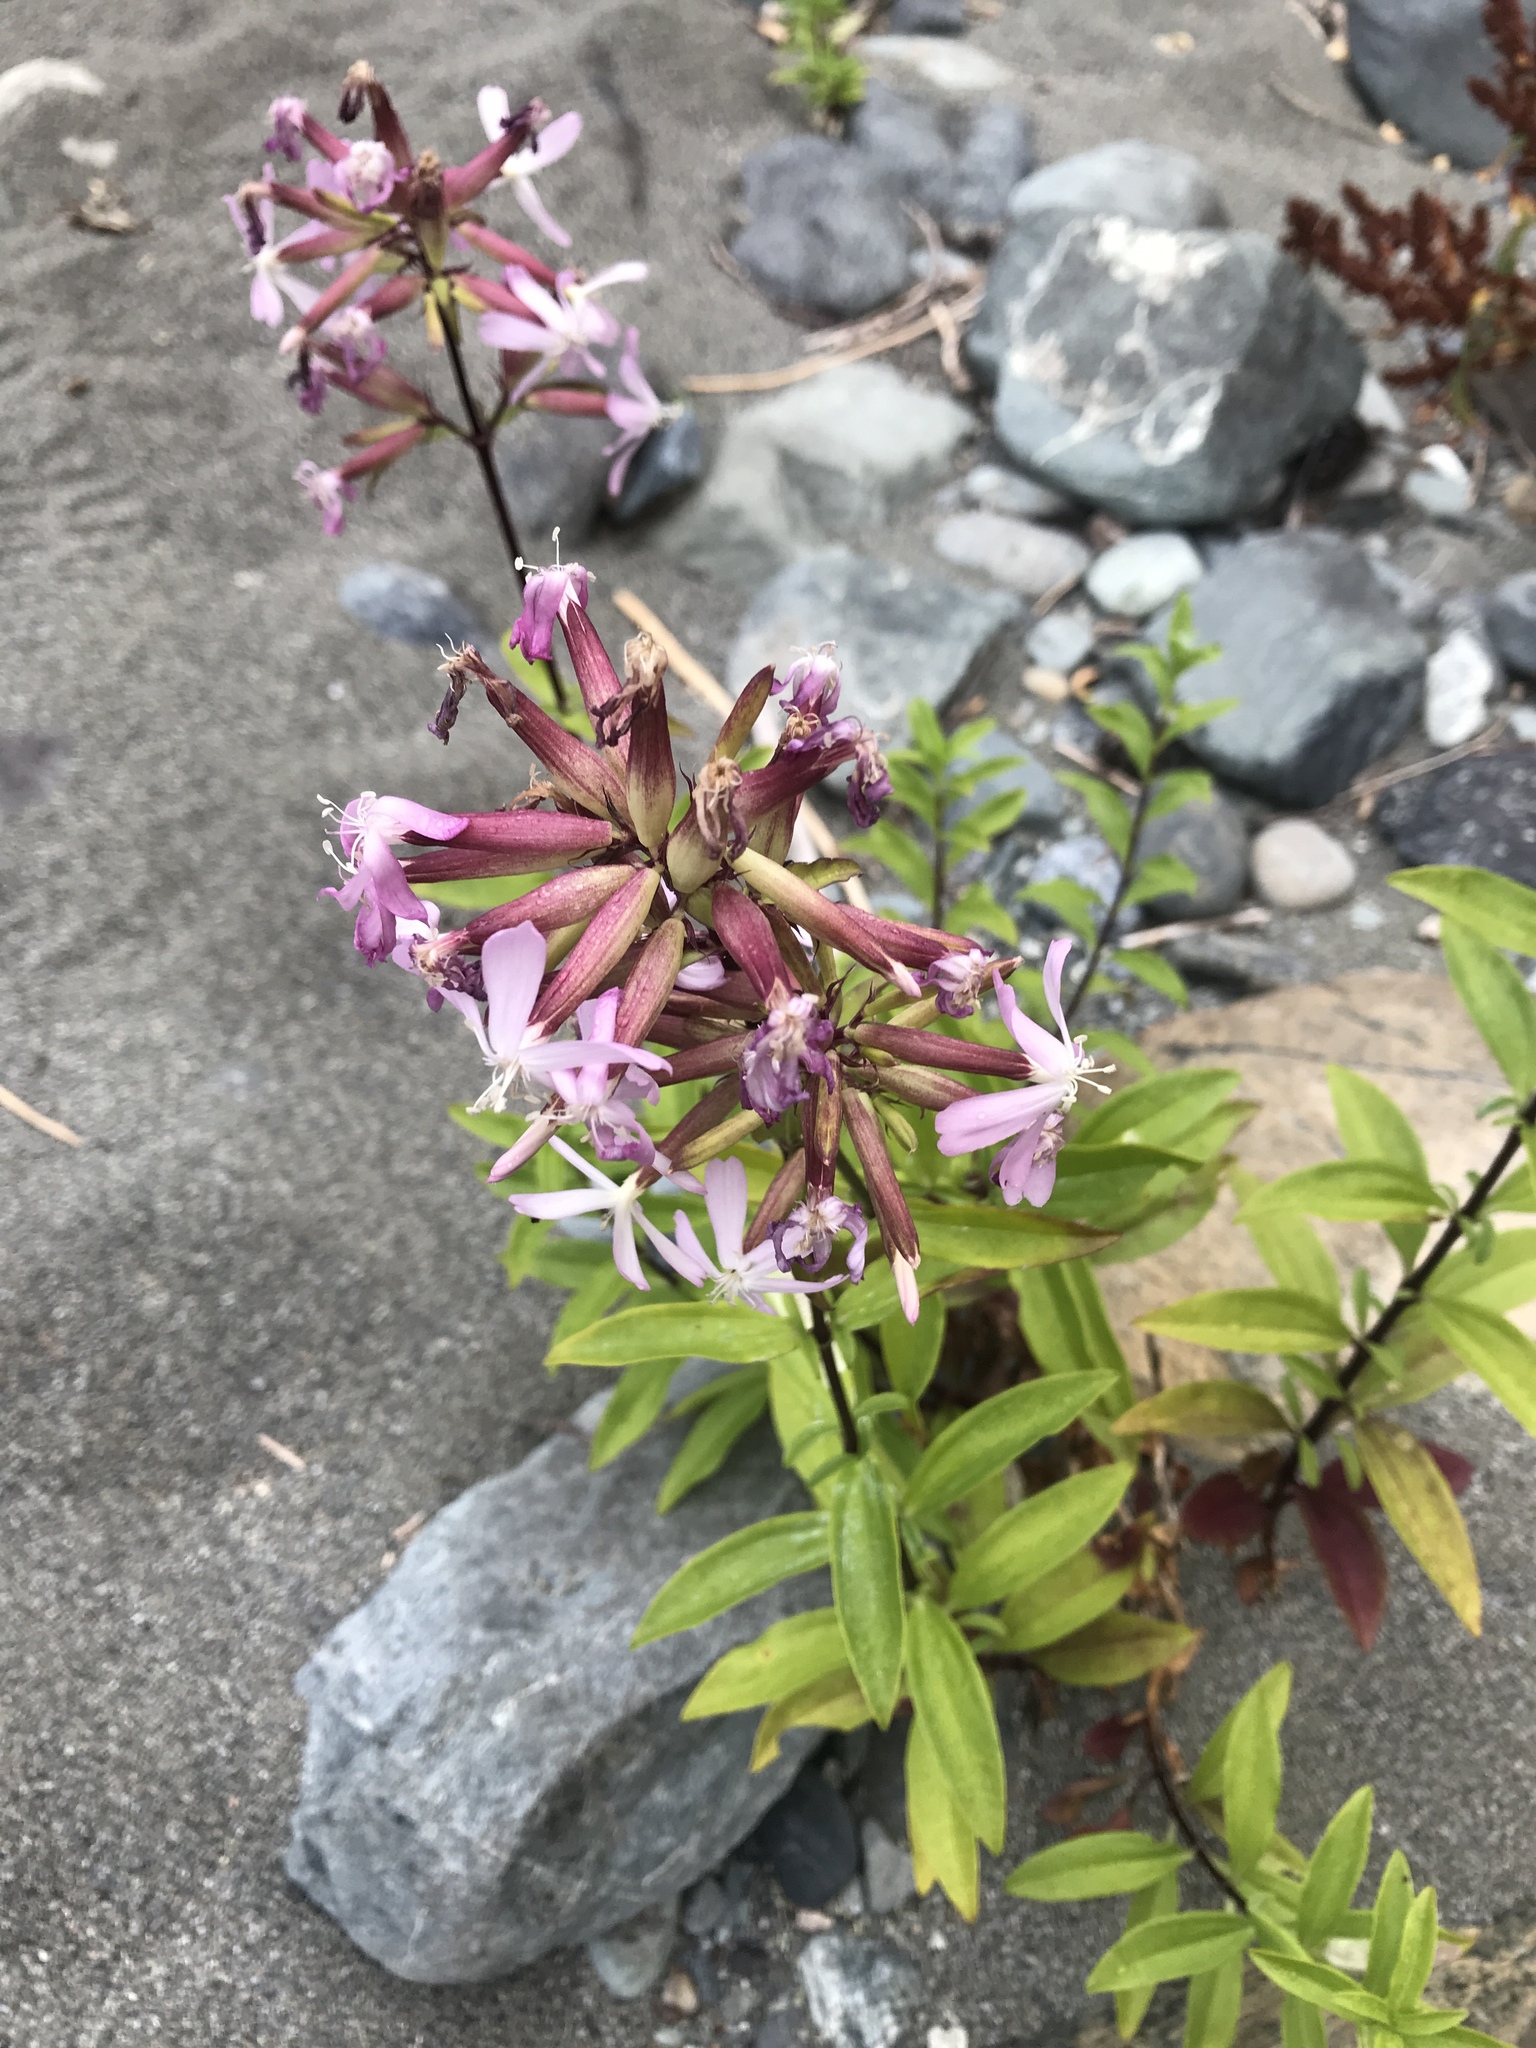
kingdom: Plantae
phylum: Tracheophyta
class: Magnoliopsida
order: Caryophyllales
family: Caryophyllaceae
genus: Saponaria
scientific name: Saponaria officinalis
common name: Soapwort
